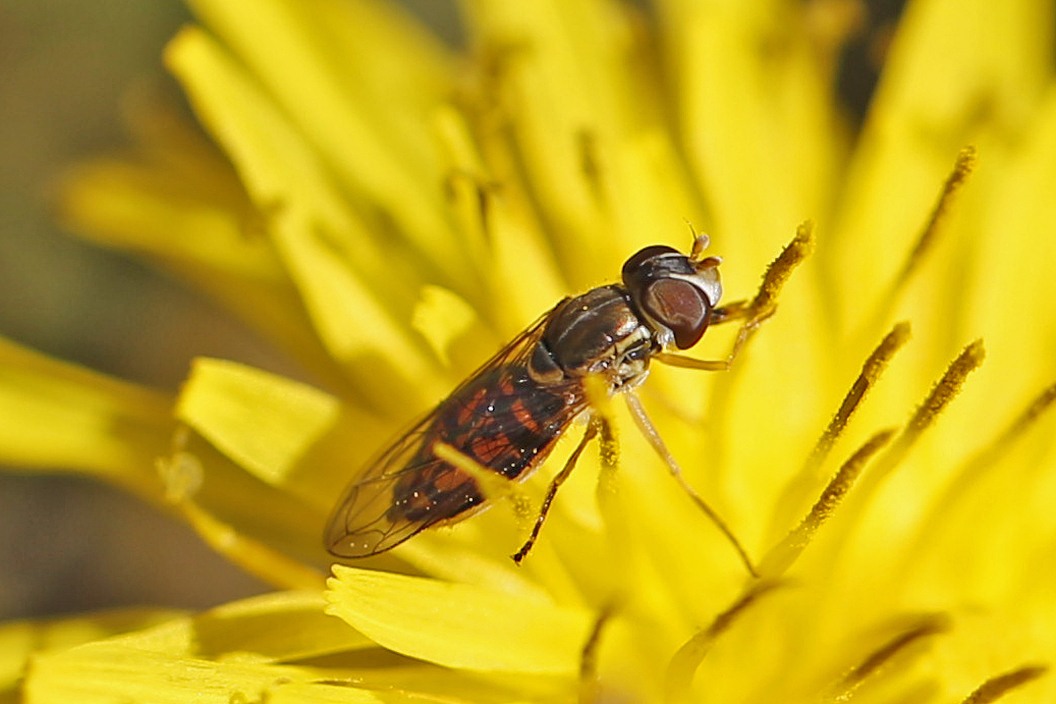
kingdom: Animalia
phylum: Arthropoda
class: Insecta
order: Diptera
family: Syrphidae
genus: Toxomerus
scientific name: Toxomerus marginatus
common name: Syrphid fly
